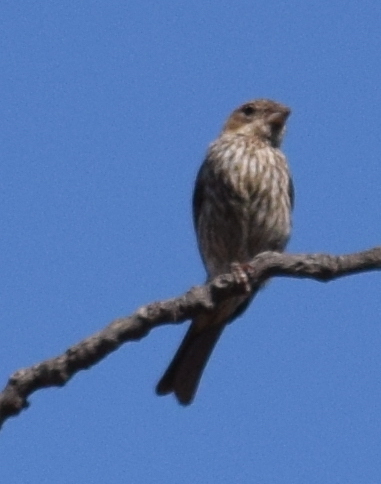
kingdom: Animalia
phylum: Chordata
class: Aves
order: Passeriformes
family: Fringillidae
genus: Haemorhous
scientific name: Haemorhous mexicanus
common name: House finch
